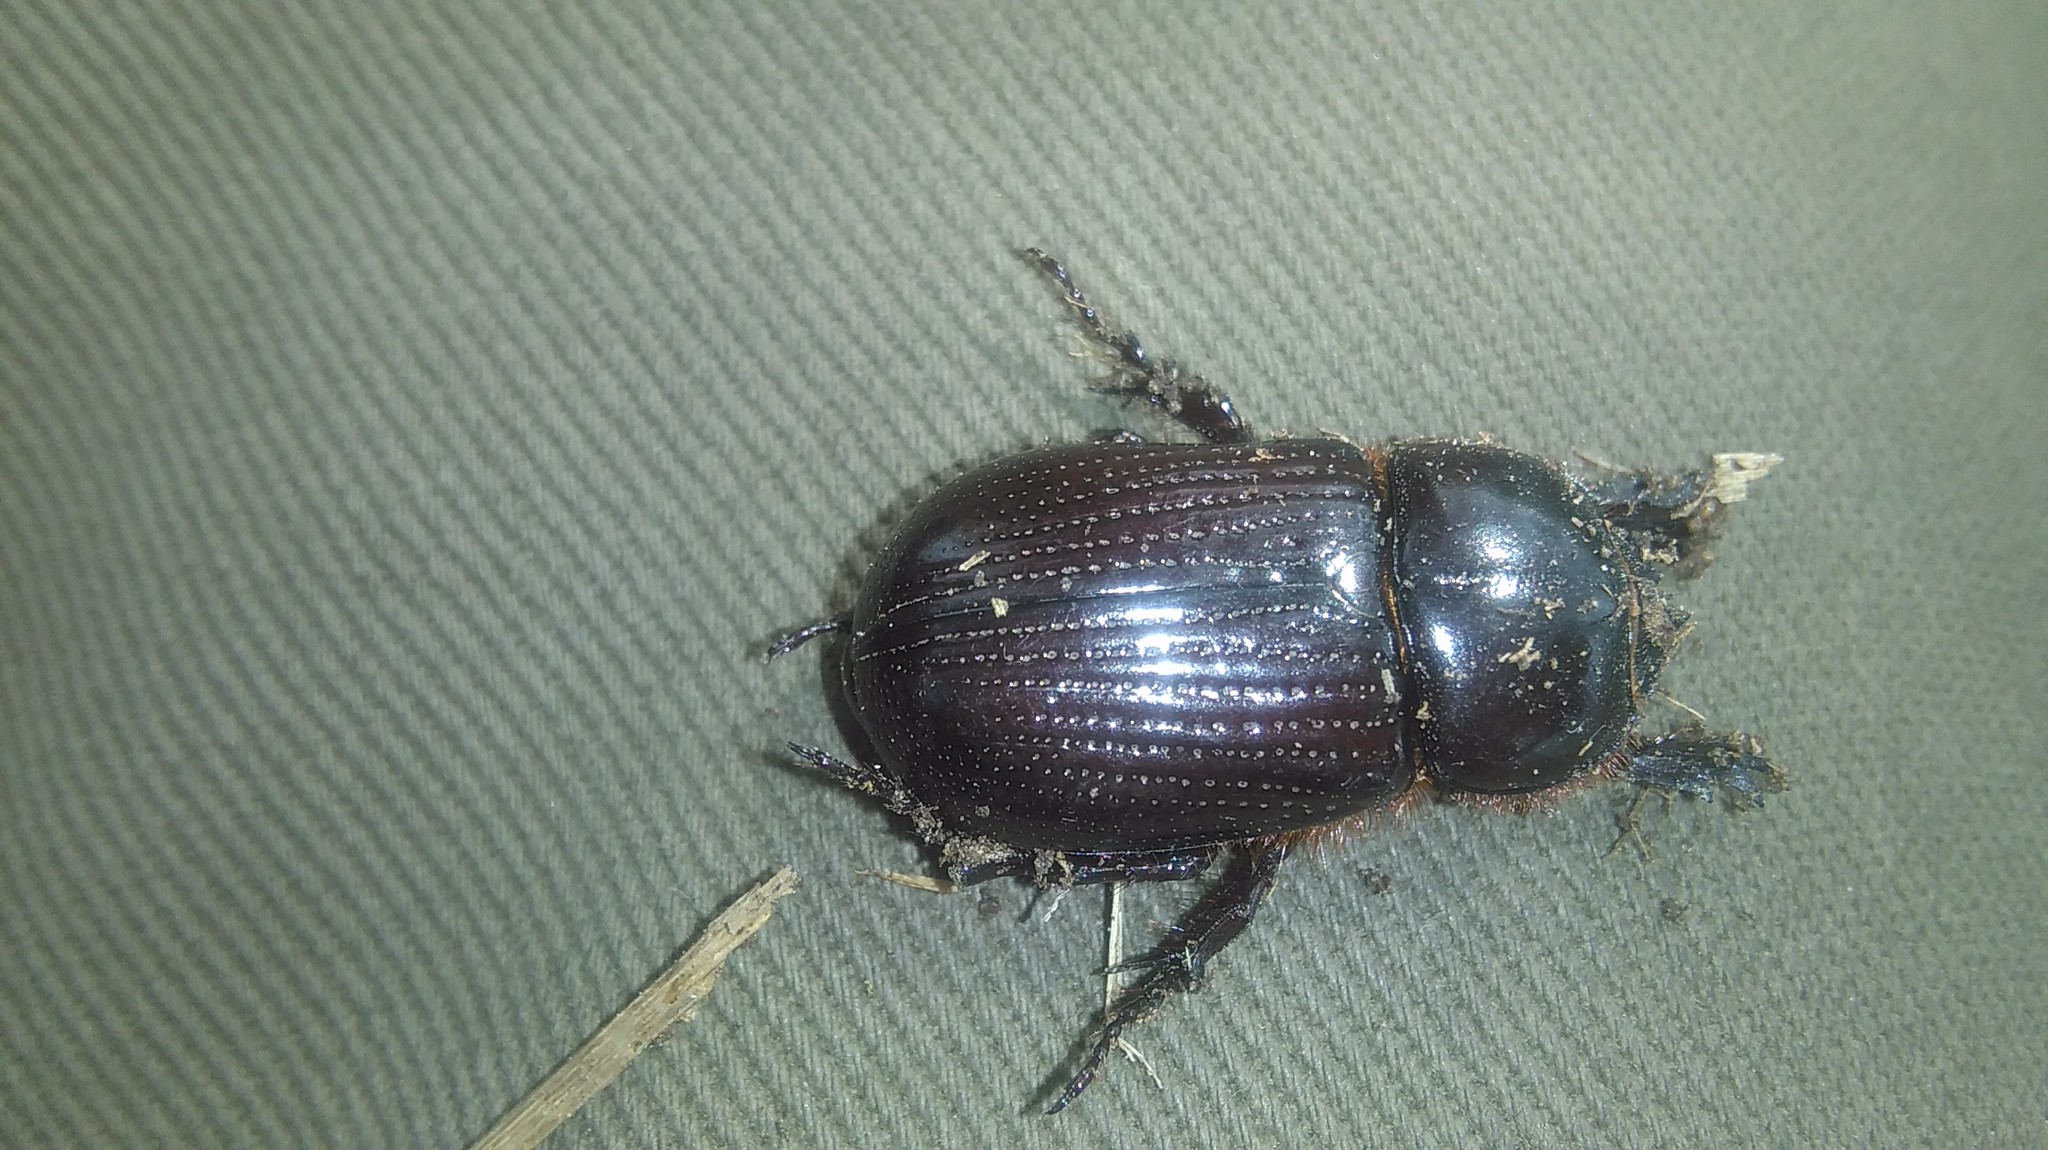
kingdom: Animalia
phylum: Arthropoda
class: Insecta
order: Coleoptera
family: Scarabaeidae
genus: Archophileurus
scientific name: Archophileurus
